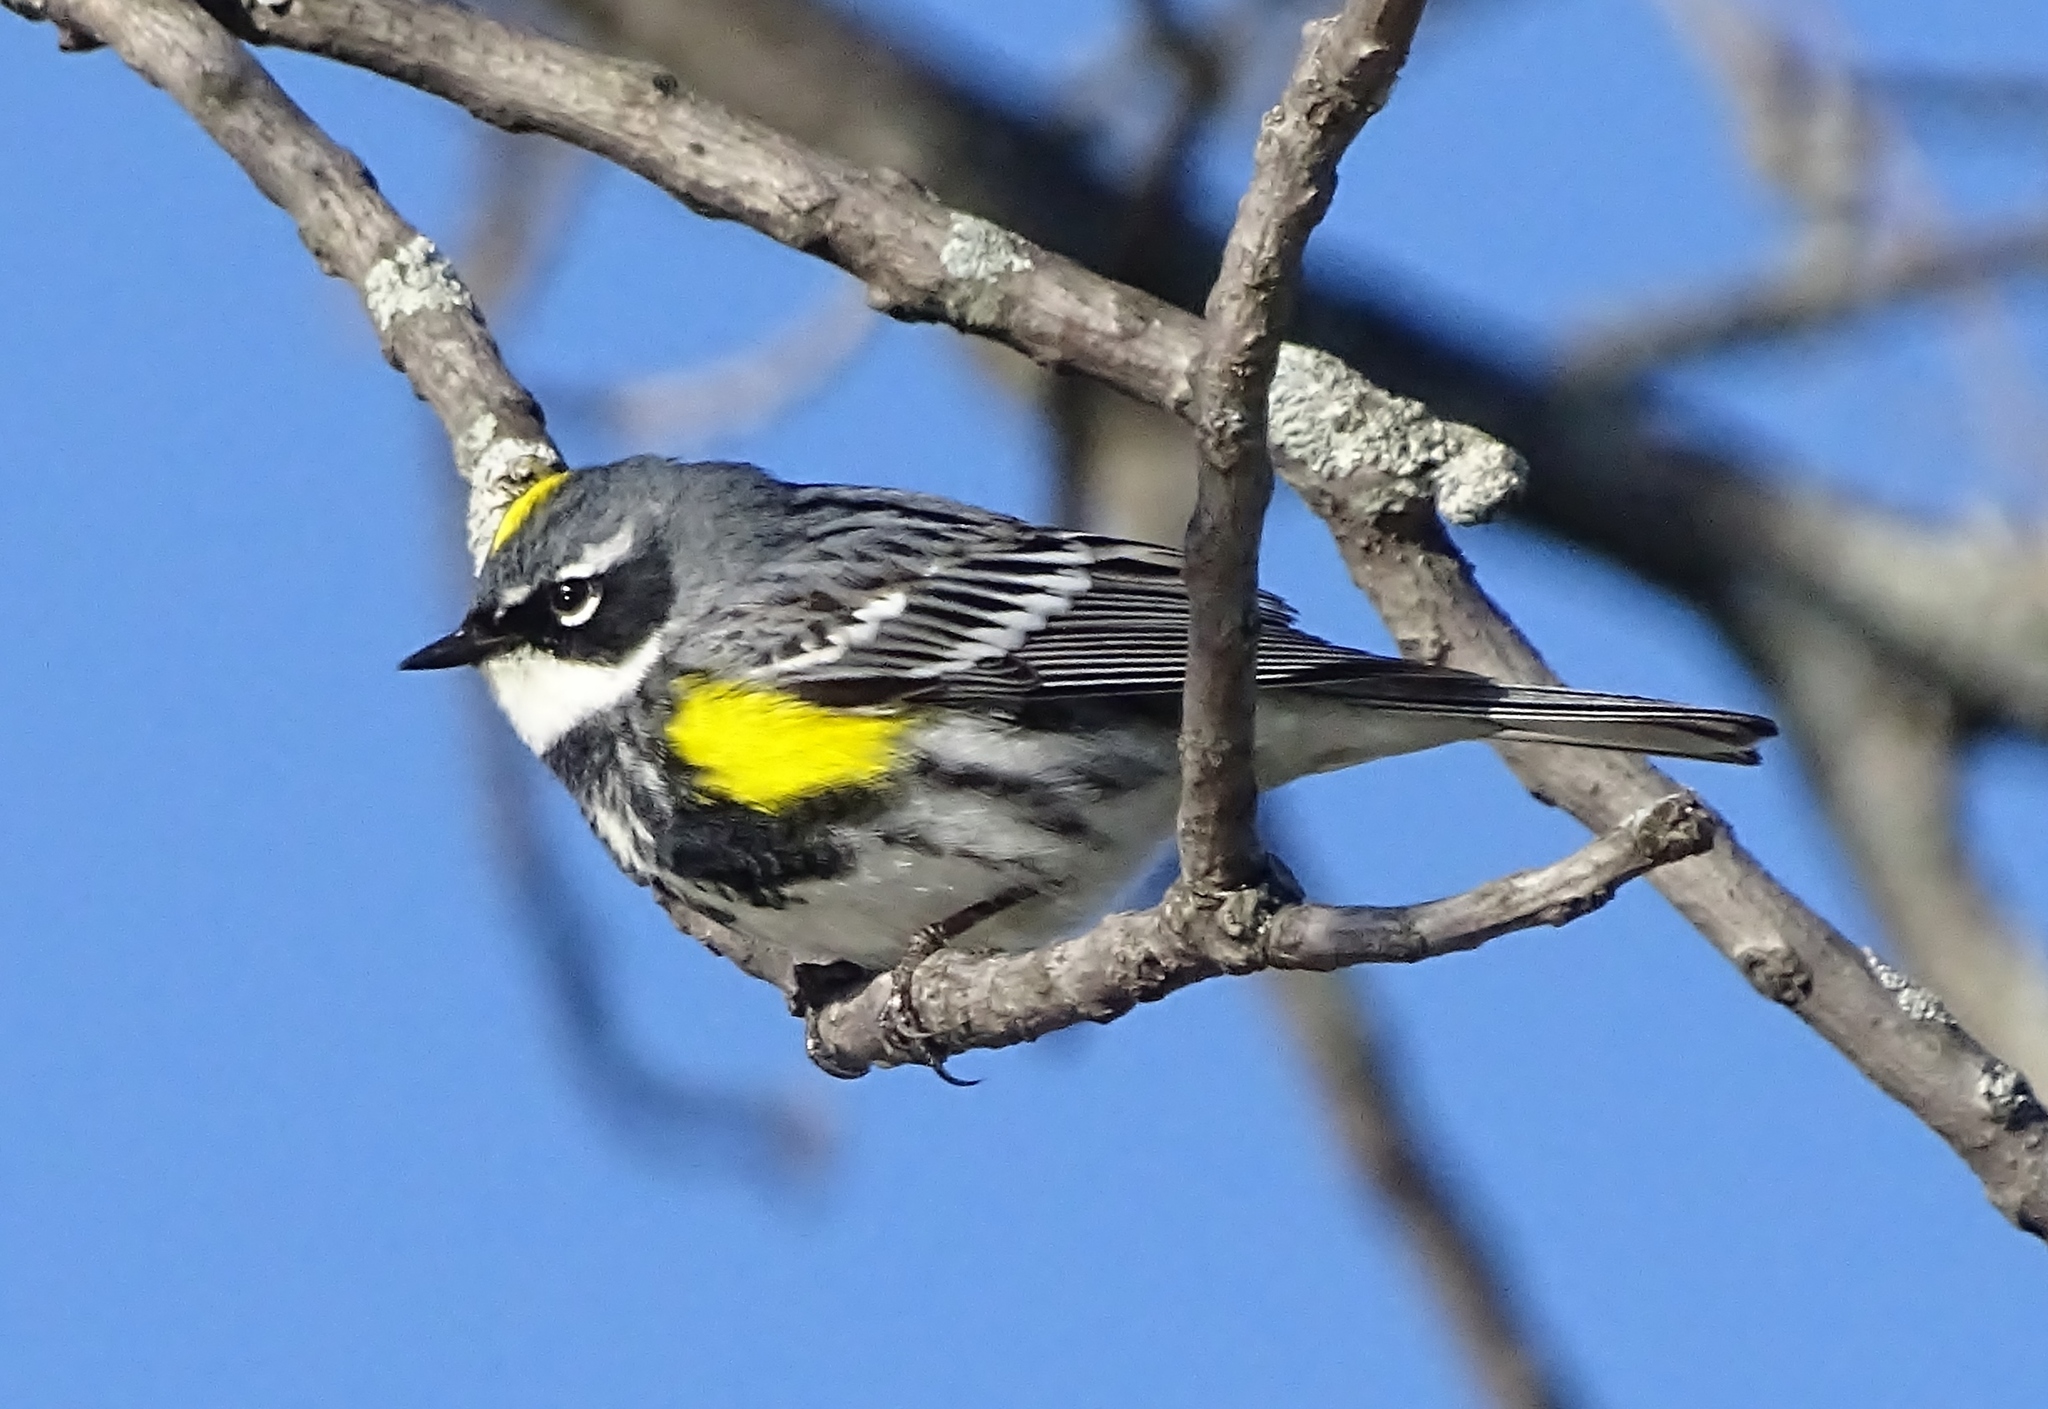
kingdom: Animalia
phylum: Chordata
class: Aves
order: Passeriformes
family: Parulidae
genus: Setophaga
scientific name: Setophaga coronata
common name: Myrtle warbler
